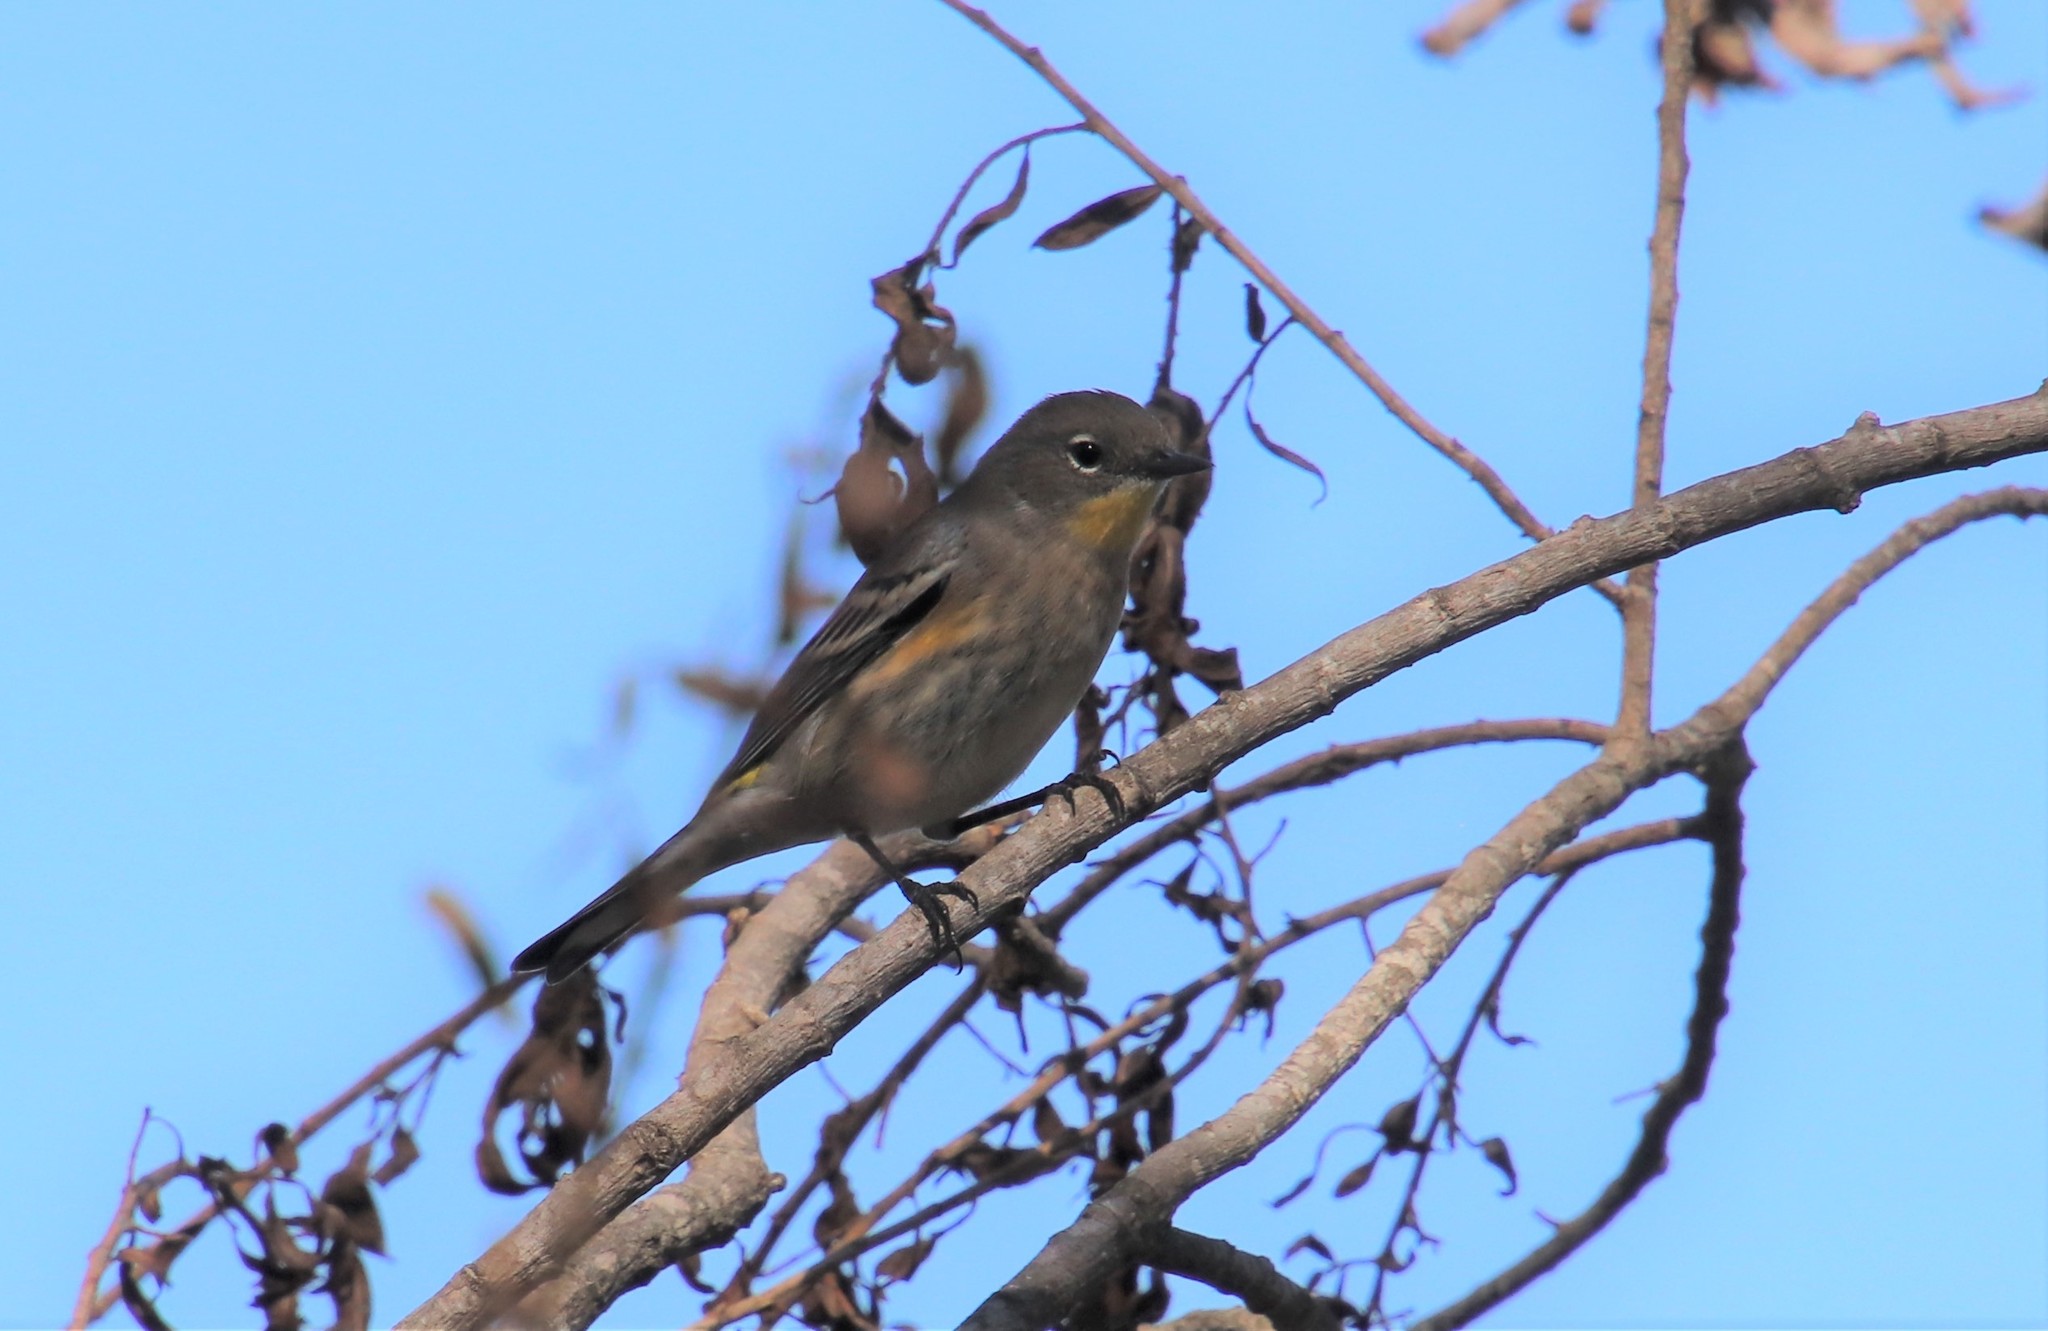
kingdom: Animalia
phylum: Chordata
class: Aves
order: Passeriformes
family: Parulidae
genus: Setophaga
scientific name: Setophaga coronata
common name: Myrtle warbler
